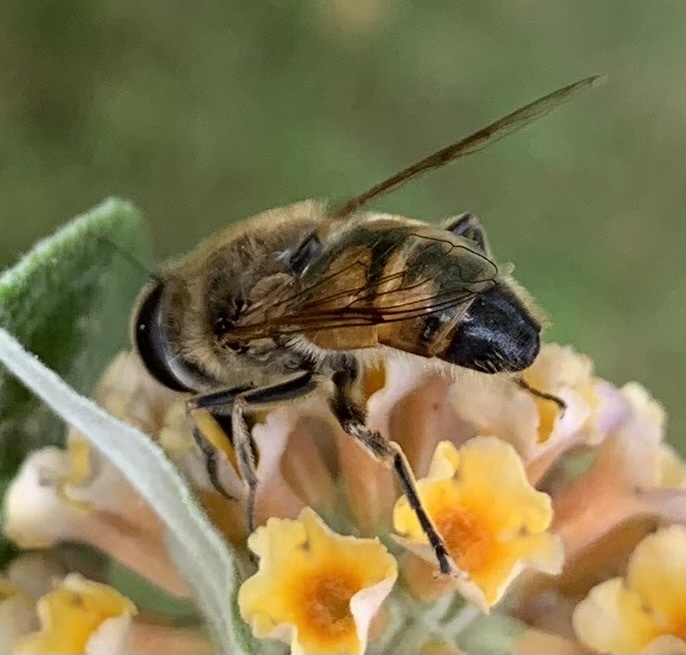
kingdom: Animalia
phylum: Arthropoda
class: Insecta
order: Diptera
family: Syrphidae
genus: Eristalis
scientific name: Eristalis tenax
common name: Drone fly
